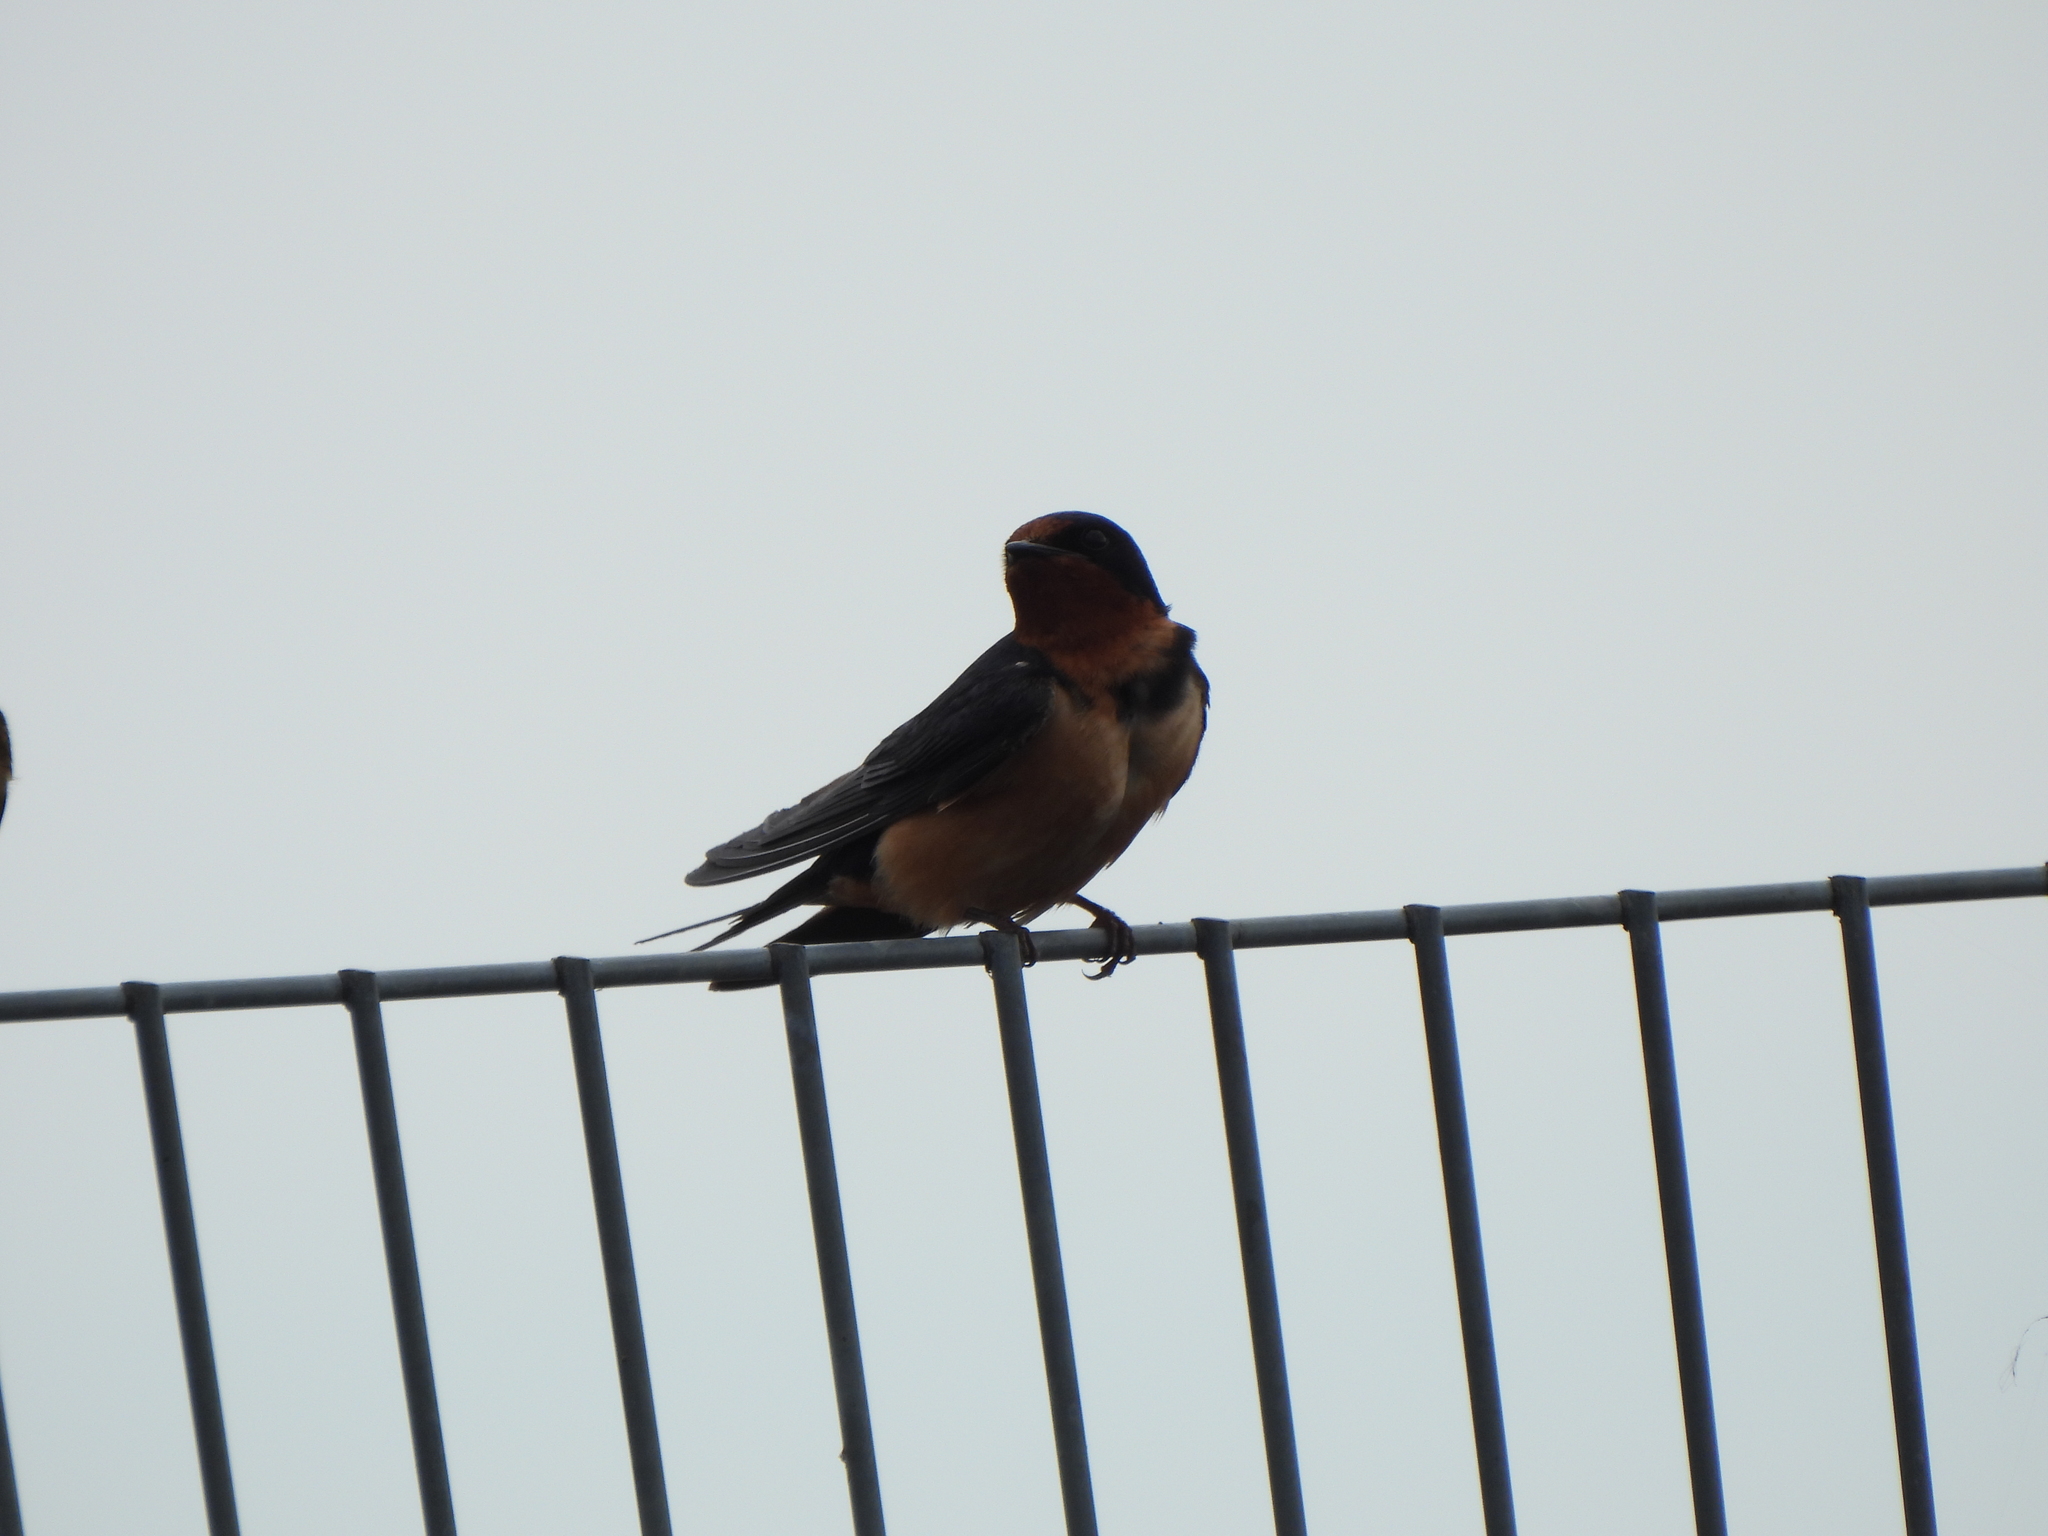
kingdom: Animalia
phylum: Chordata
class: Aves
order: Passeriformes
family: Hirundinidae
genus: Hirundo
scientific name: Hirundo rustica
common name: Barn swallow
